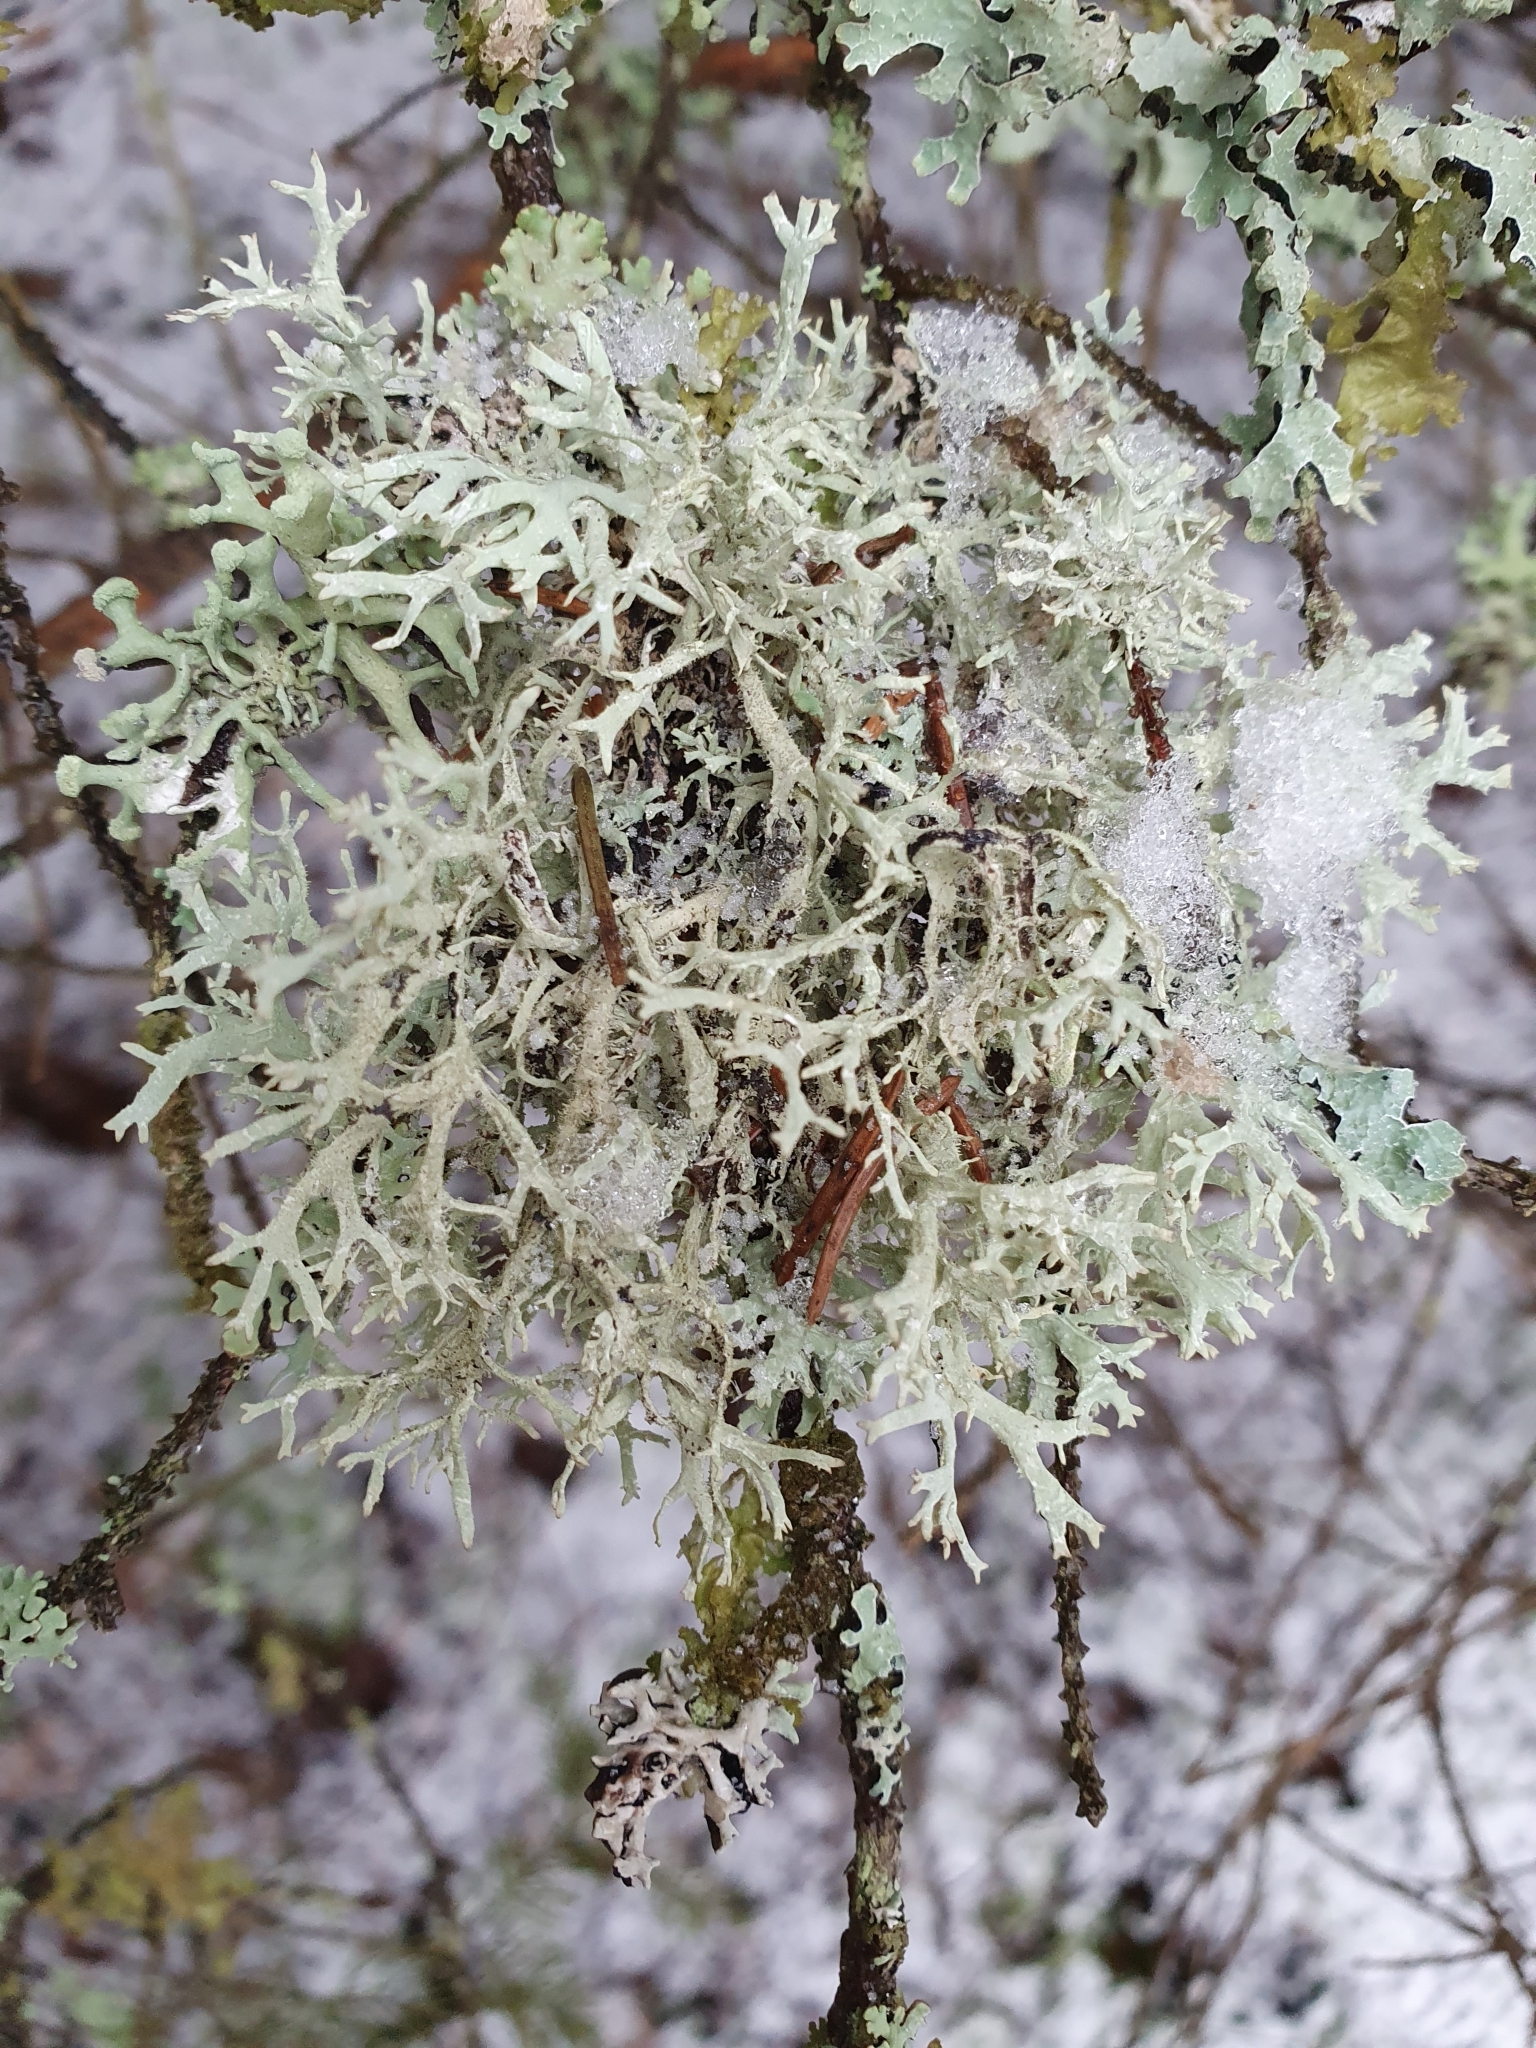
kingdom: Fungi
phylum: Ascomycota
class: Lecanoromycetes
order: Lecanorales
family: Parmeliaceae
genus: Pseudevernia
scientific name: Pseudevernia furfuracea
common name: Tree moss
